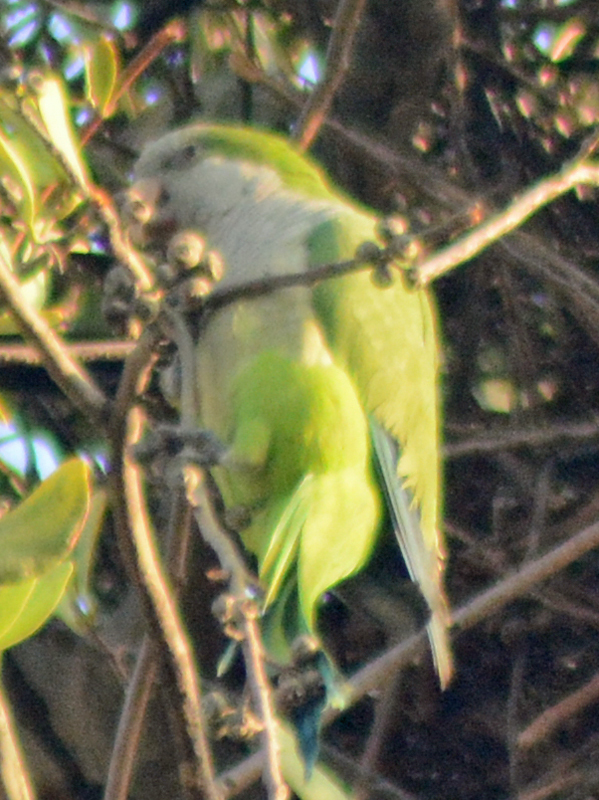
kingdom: Animalia
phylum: Chordata
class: Aves
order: Psittaciformes
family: Psittacidae
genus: Myiopsitta
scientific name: Myiopsitta monachus
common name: Monk parakeet
